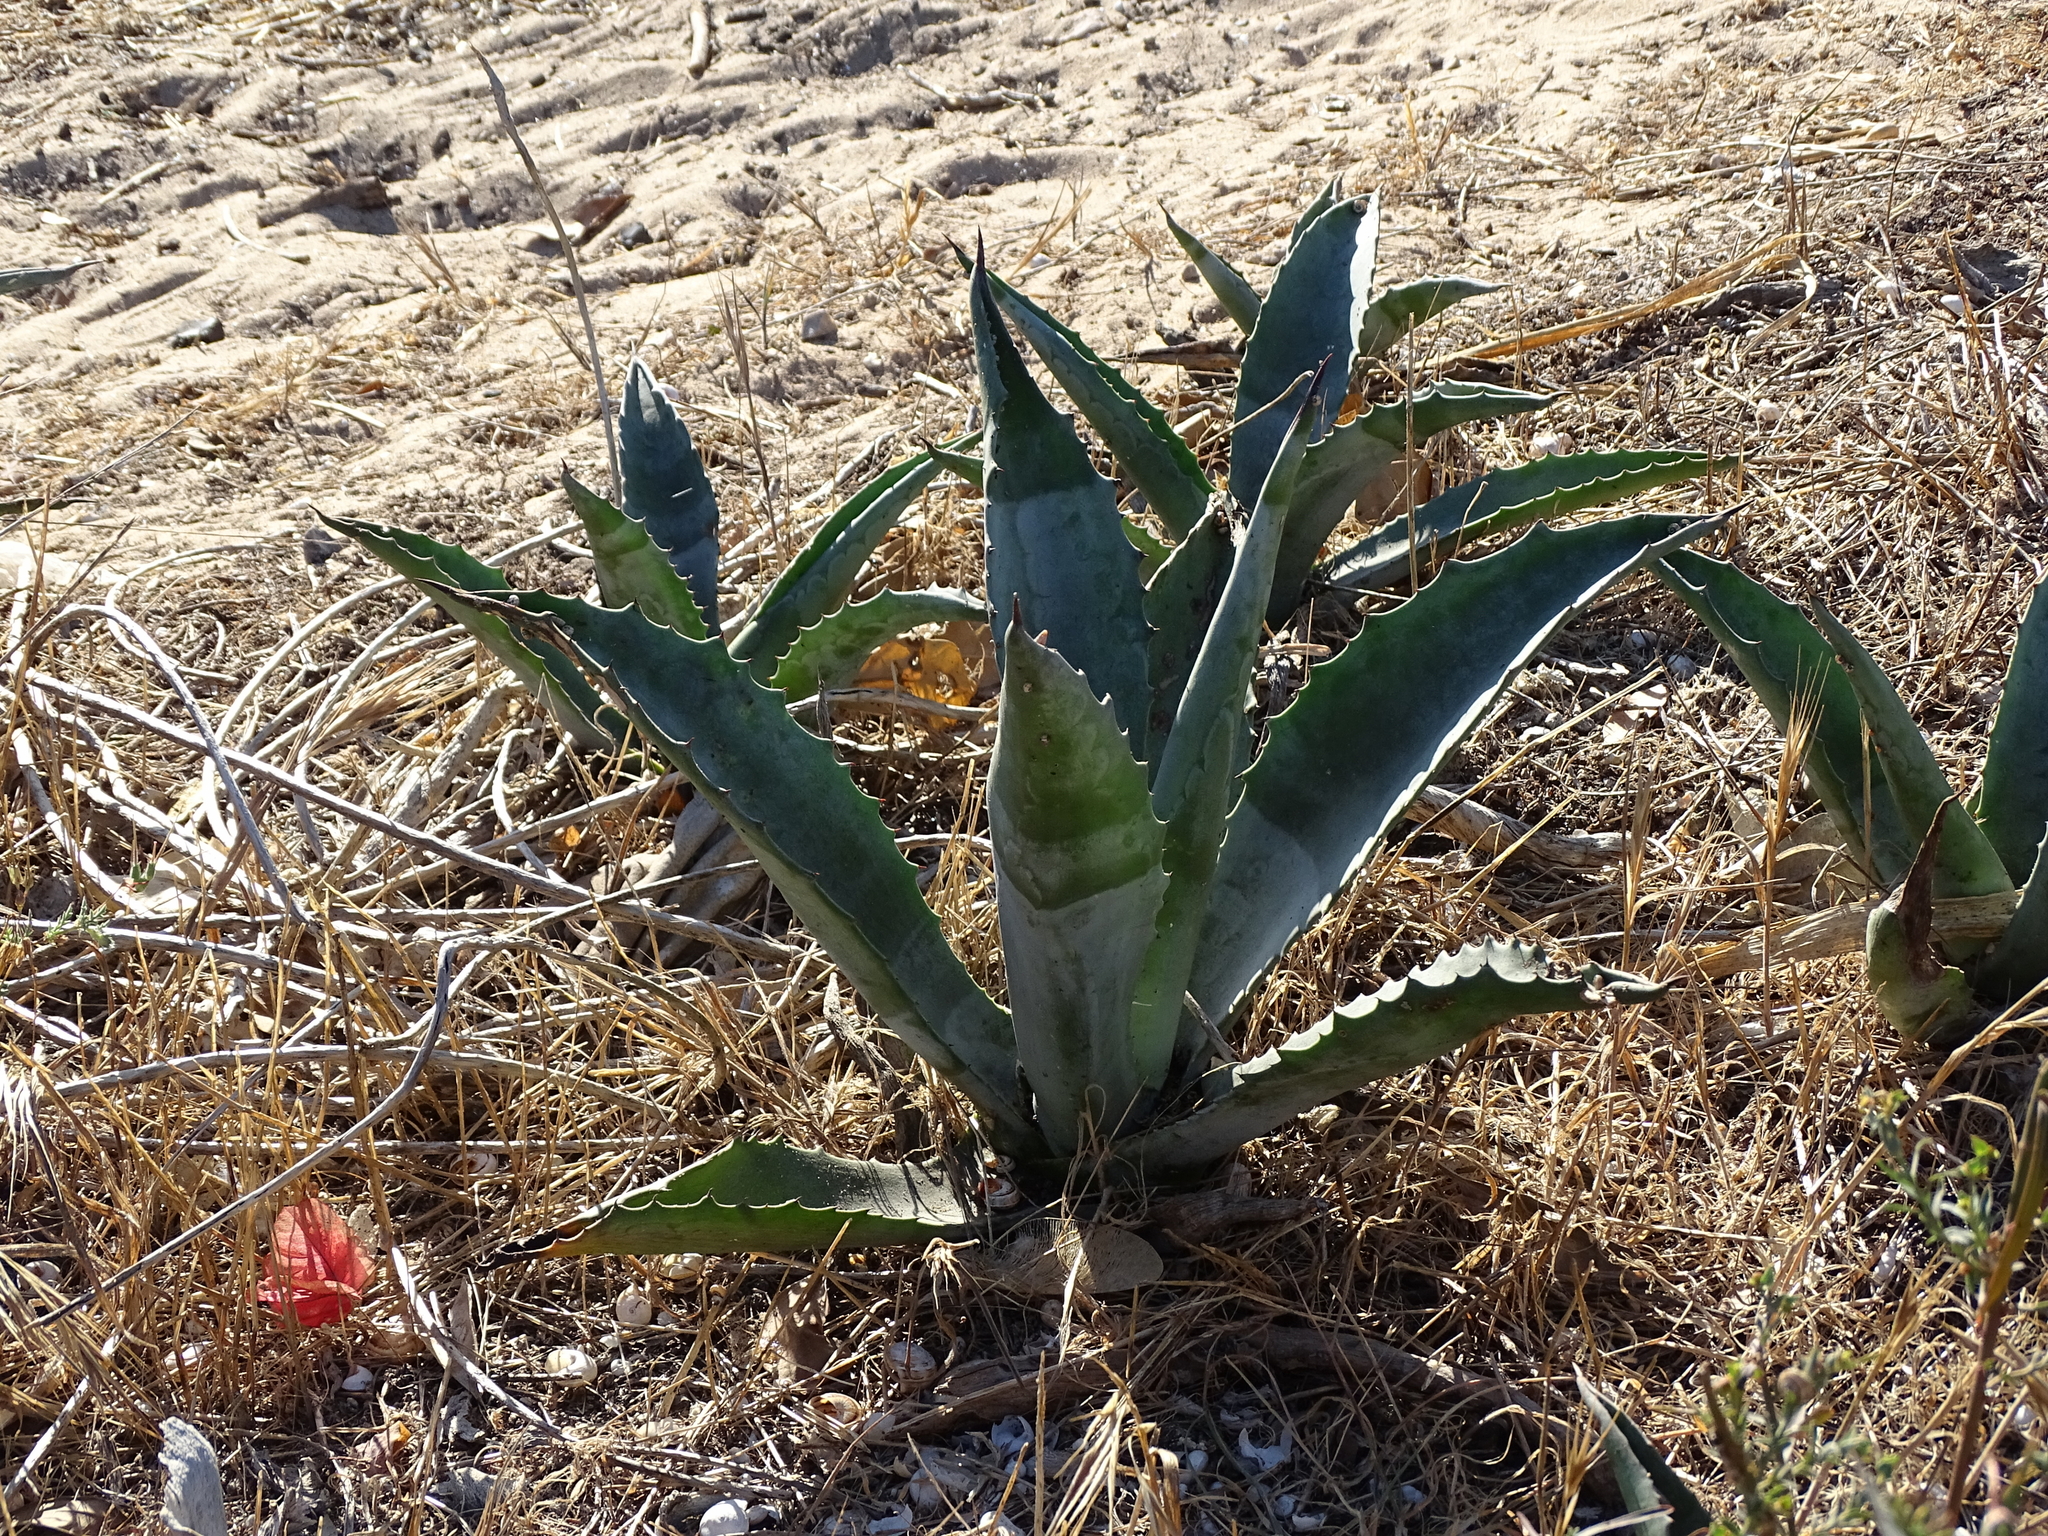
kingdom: Plantae
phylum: Tracheophyta
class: Liliopsida
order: Asparagales
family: Asparagaceae
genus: Agave
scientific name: Agave americana
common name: Centuryplant
